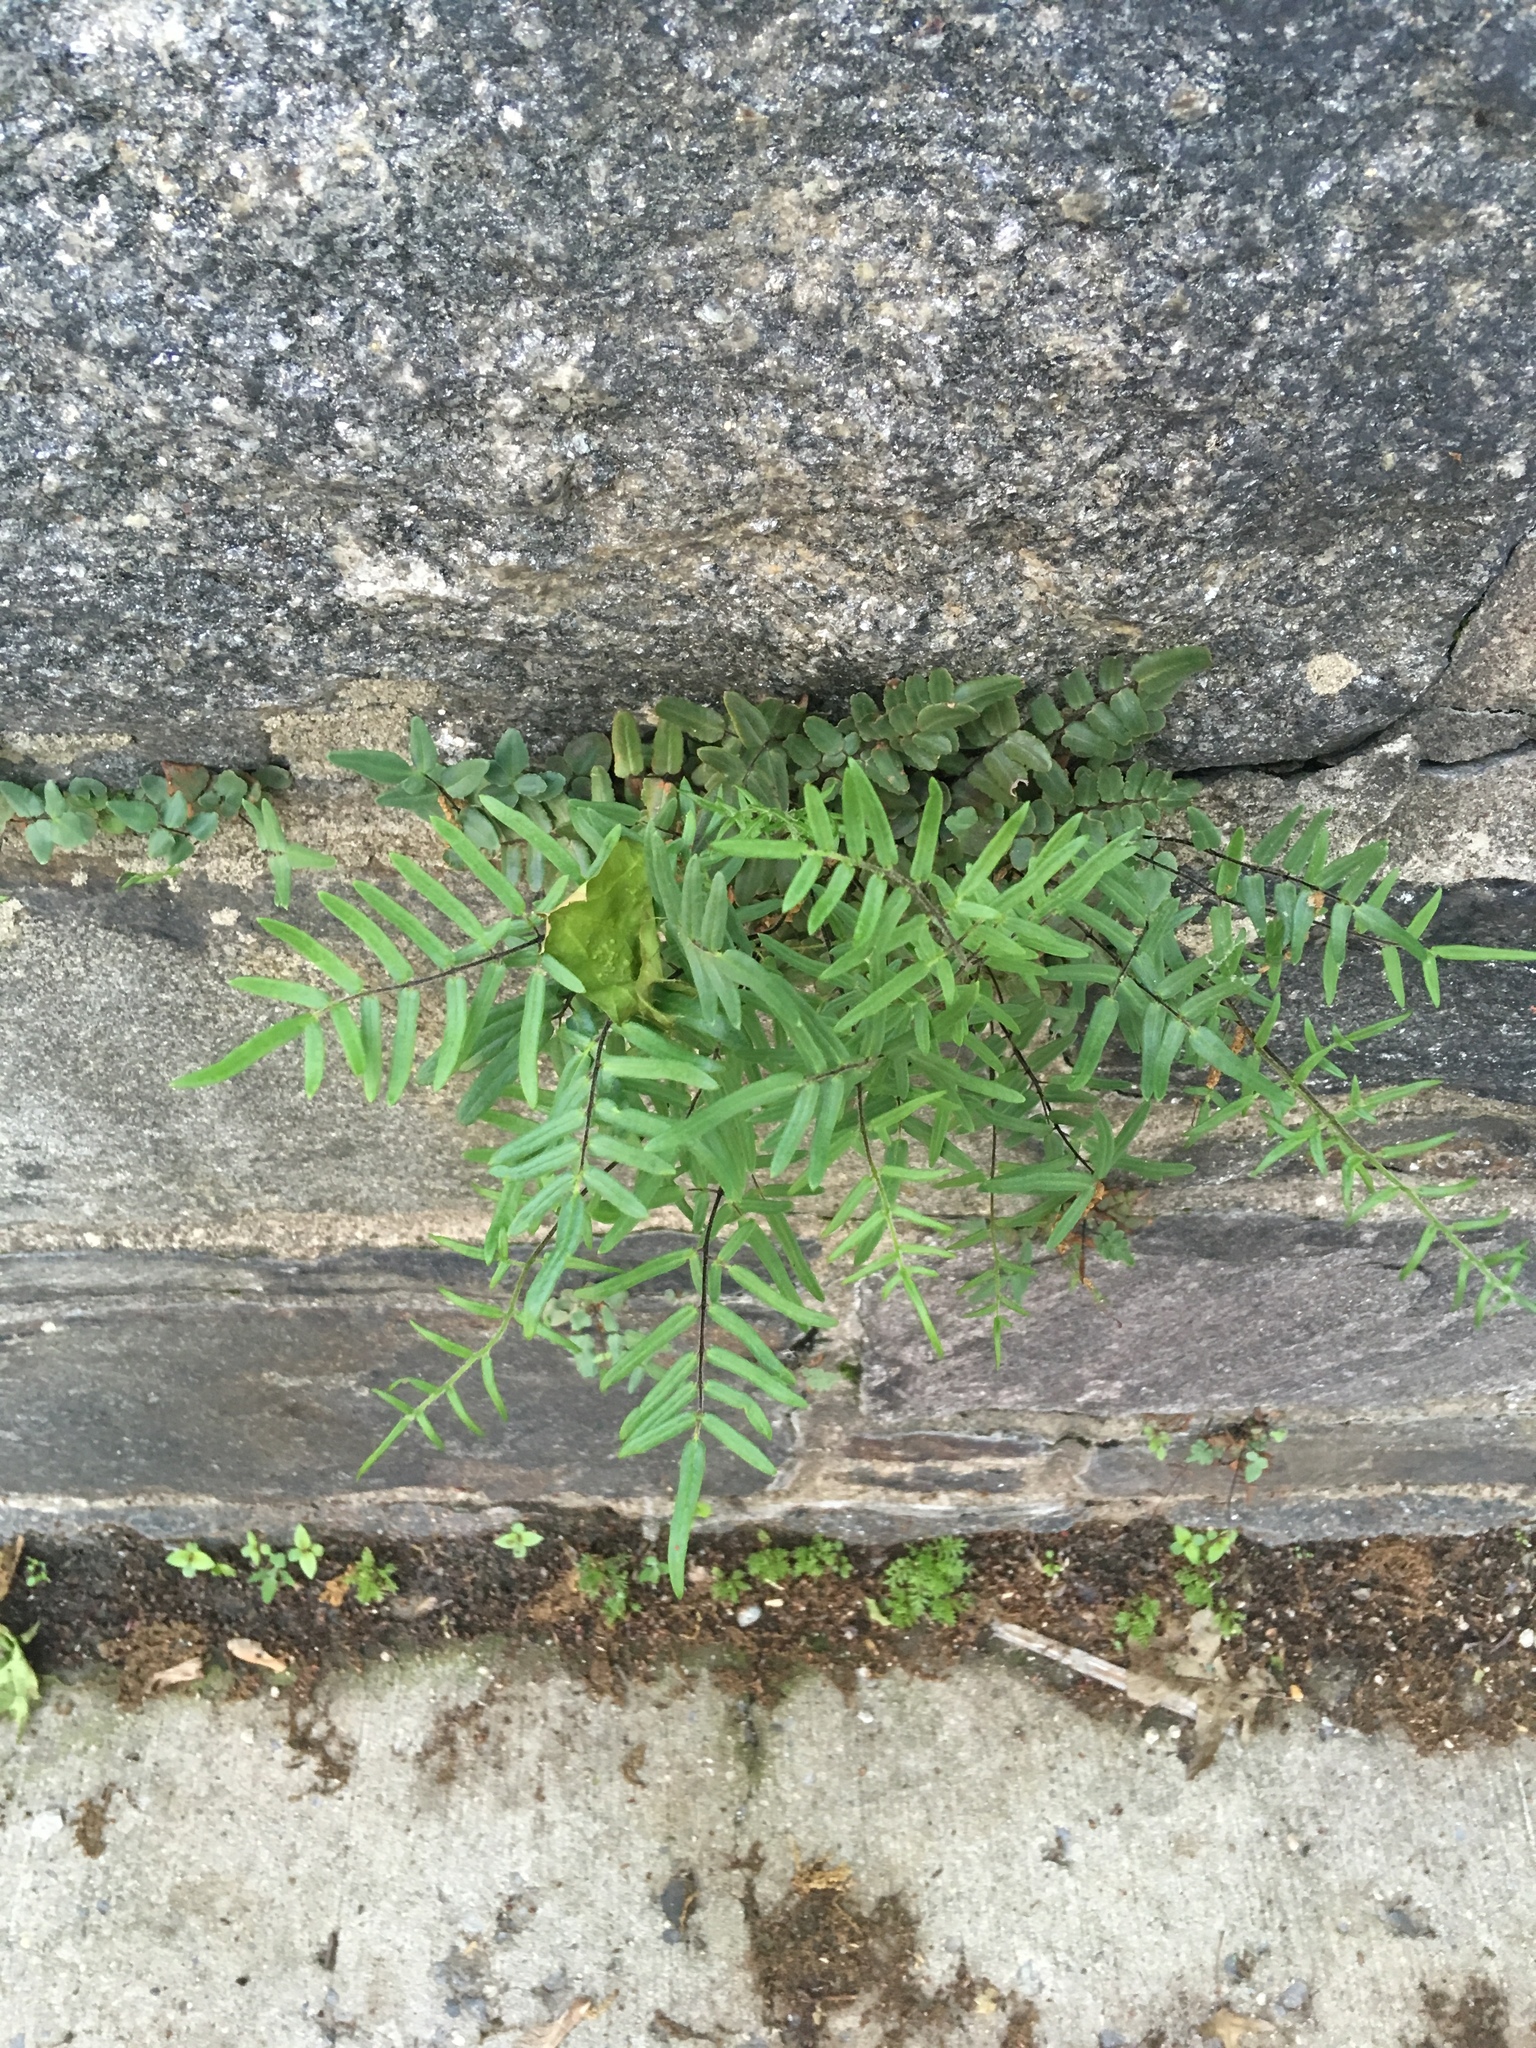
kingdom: Plantae
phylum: Tracheophyta
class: Polypodiopsida
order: Polypodiales
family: Pteridaceae
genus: Pellaea
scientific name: Pellaea atropurpurea
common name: Hairy cliffbrake
